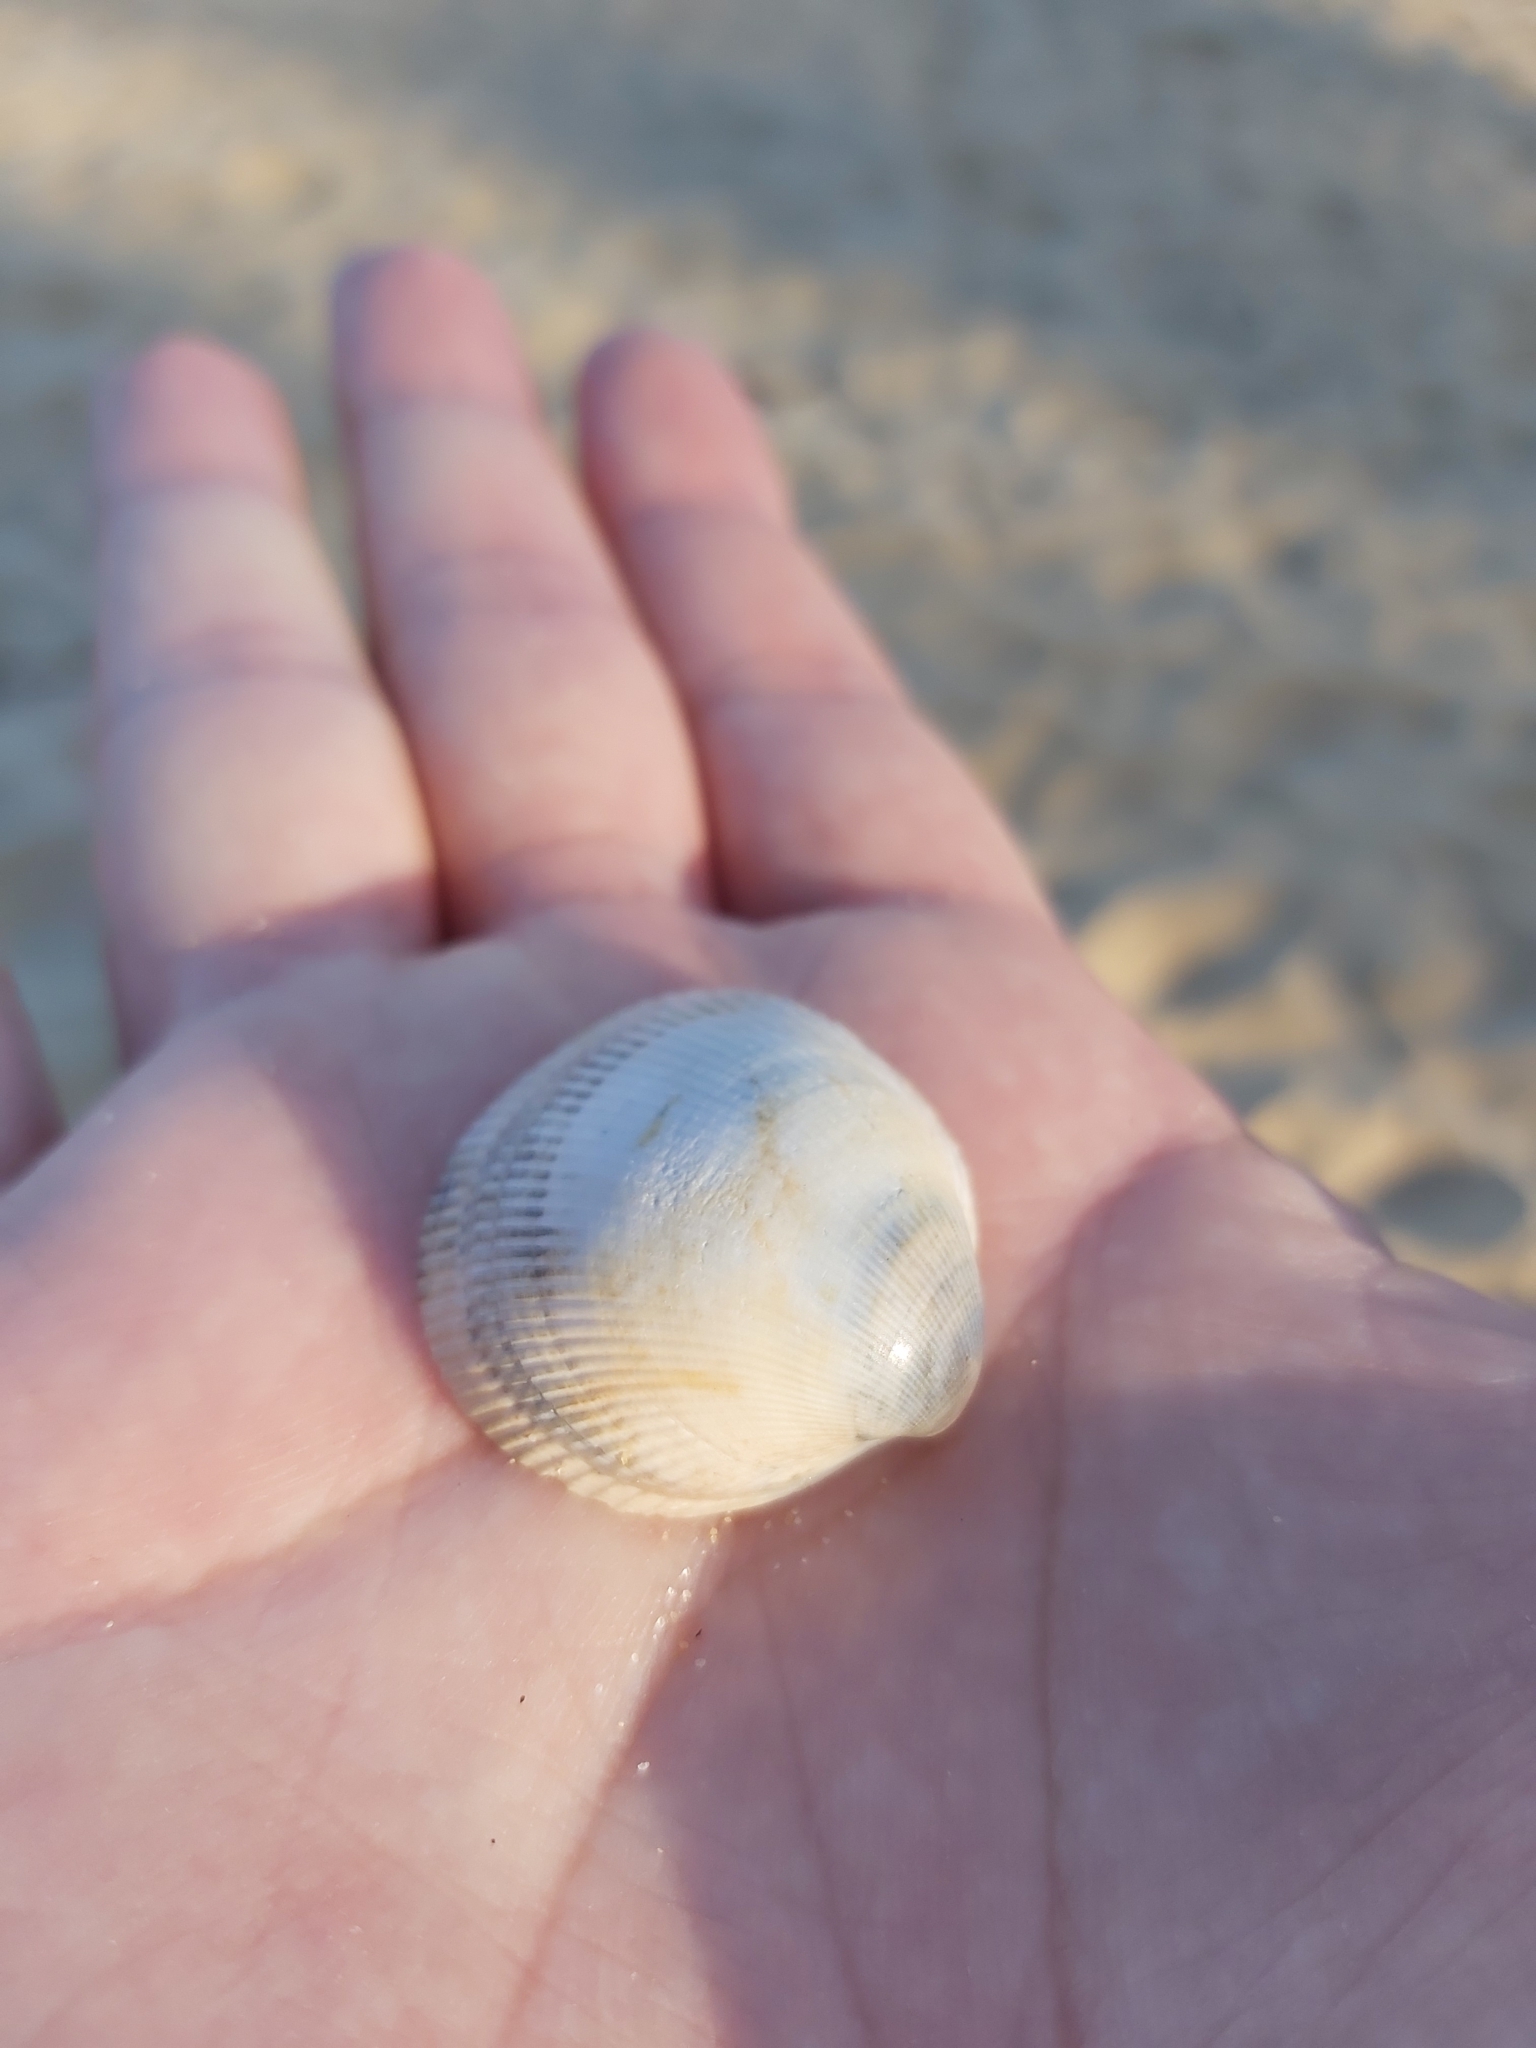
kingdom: Animalia
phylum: Mollusca
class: Bivalvia
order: Cardiida
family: Cardiidae
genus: Fulvia
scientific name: Fulvia tenuicostata
